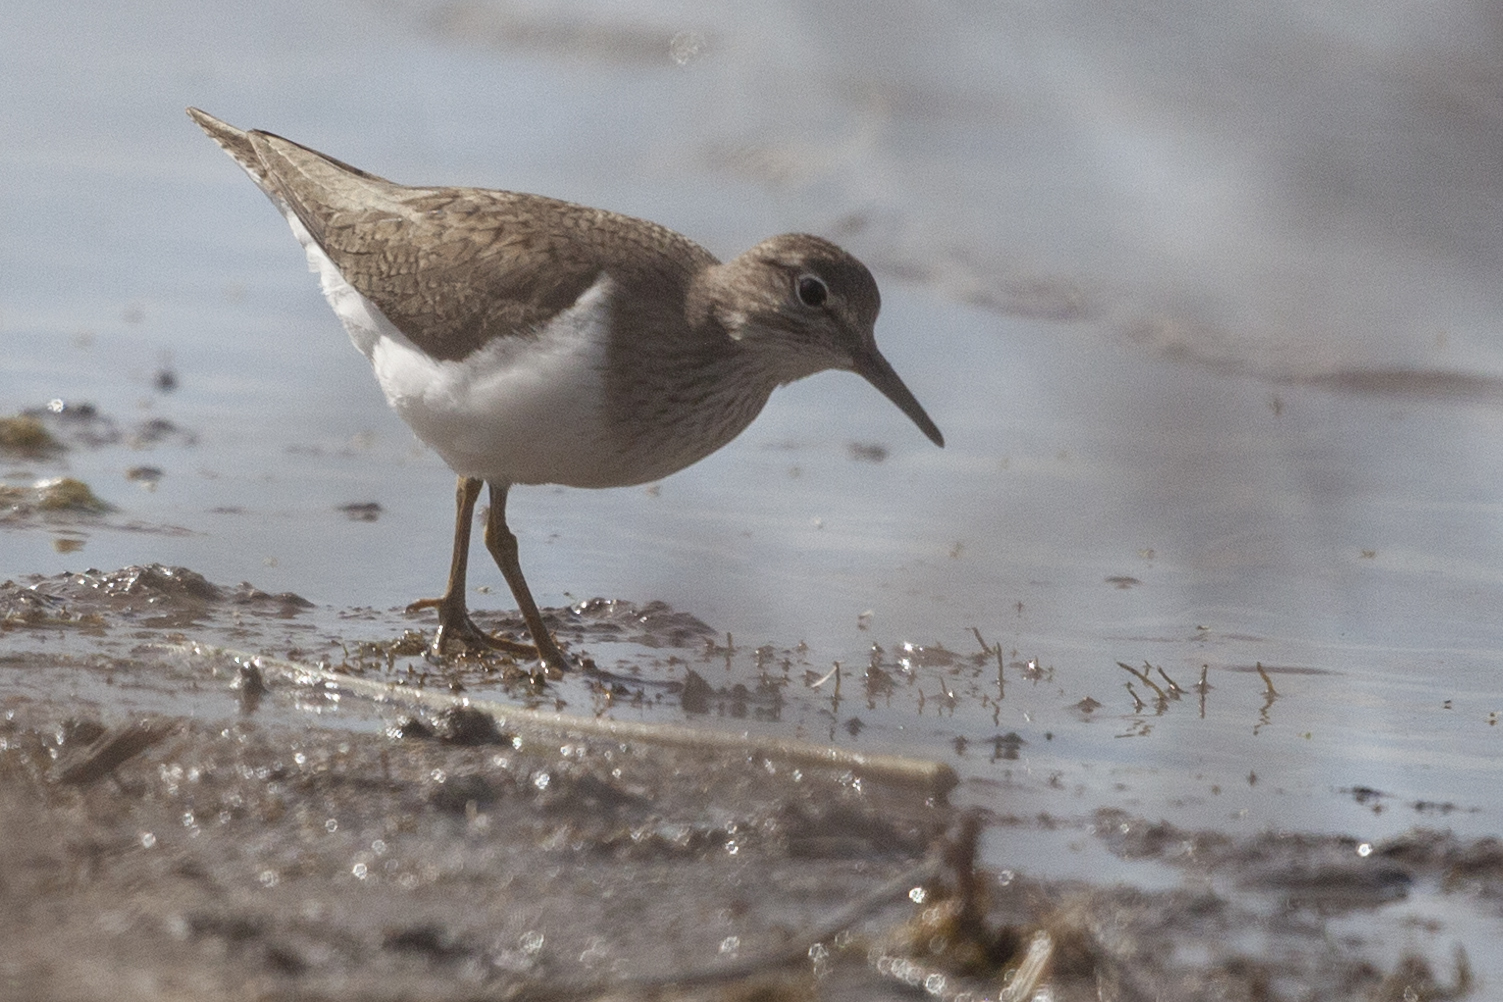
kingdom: Animalia
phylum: Chordata
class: Aves
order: Charadriiformes
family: Scolopacidae
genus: Actitis
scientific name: Actitis hypoleucos
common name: Common sandpiper
